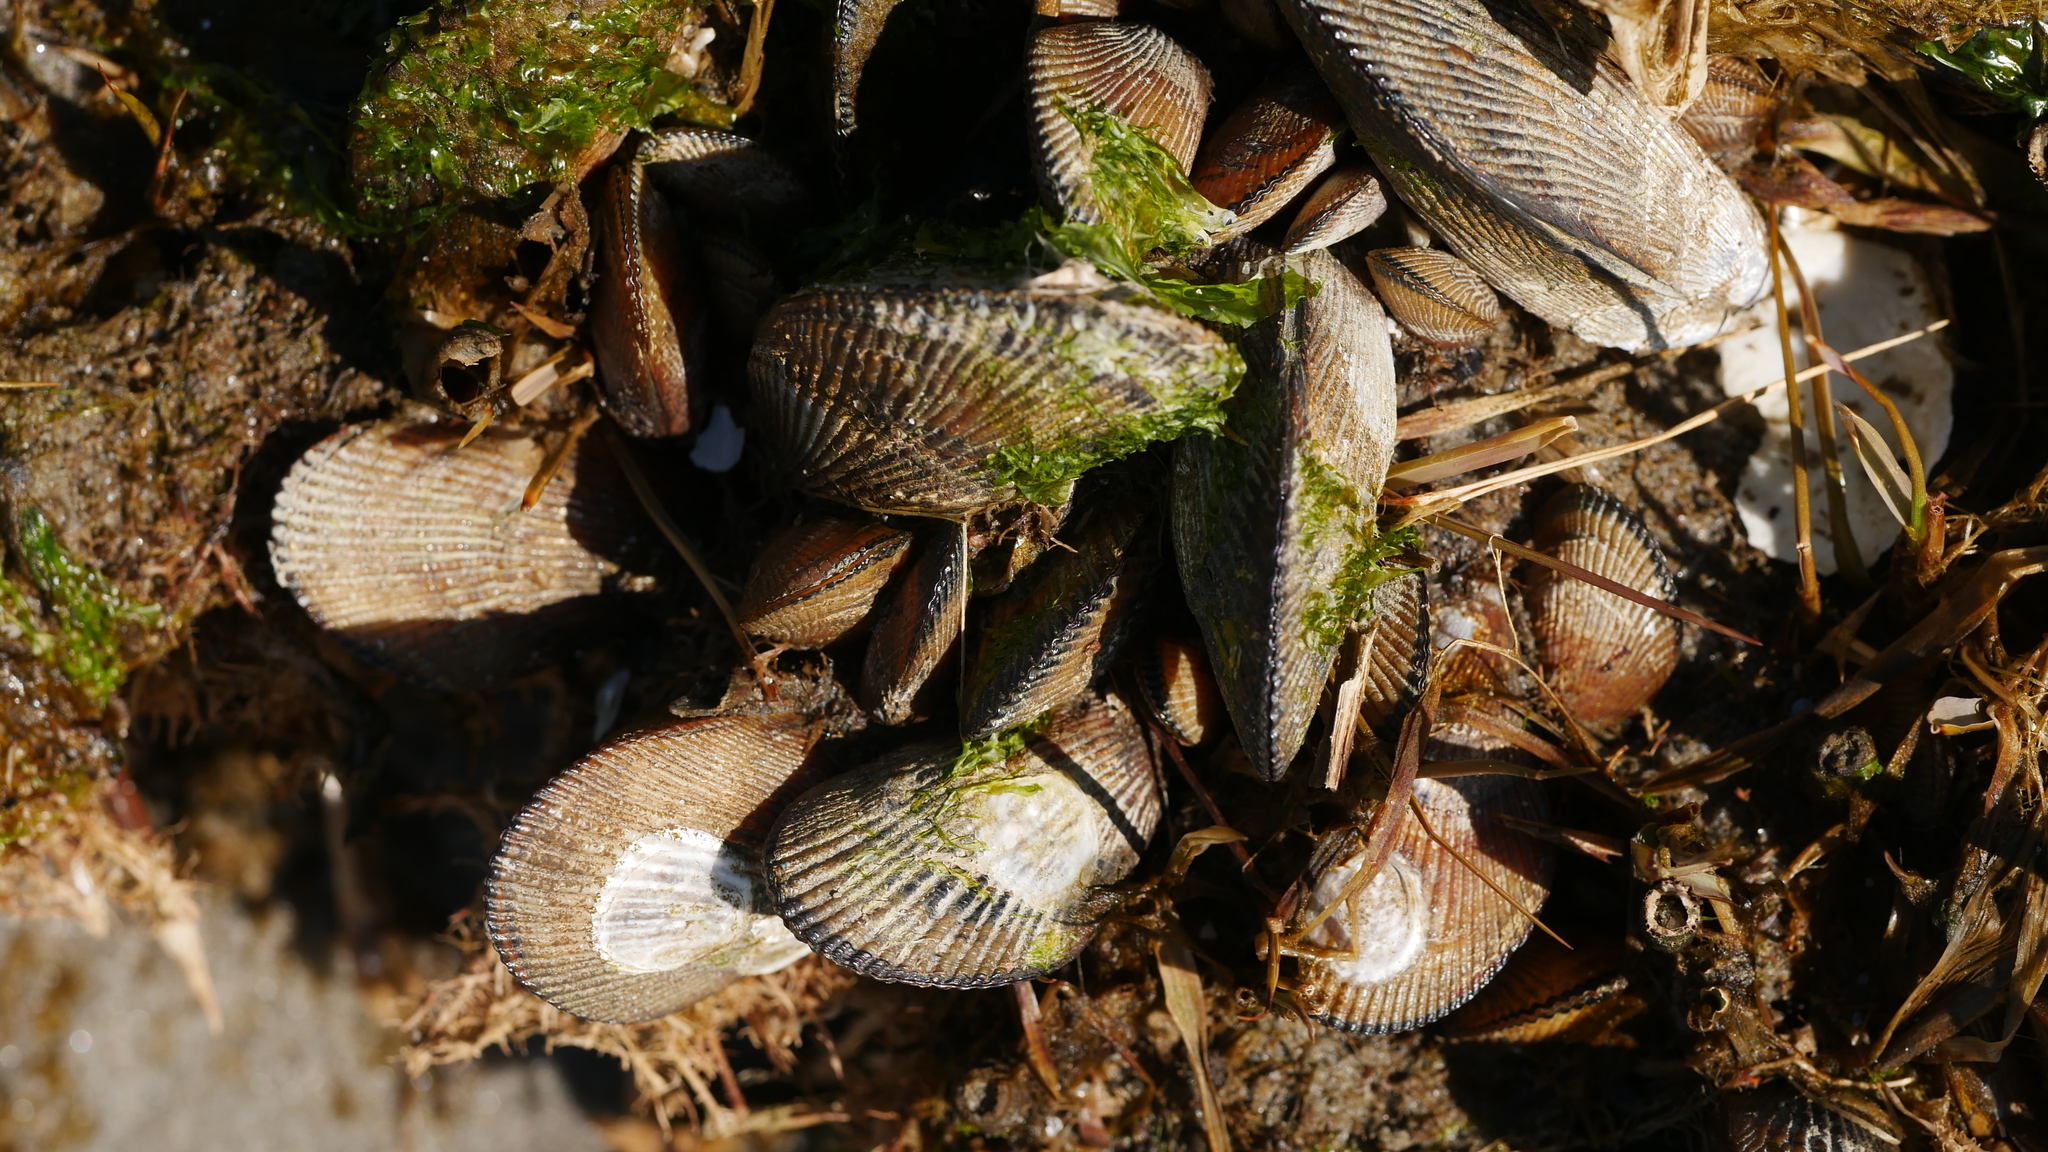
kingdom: Animalia
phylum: Mollusca
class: Bivalvia
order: Mytilida
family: Mytilidae
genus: Geukensia
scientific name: Geukensia demissa
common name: Ribbed mussel
